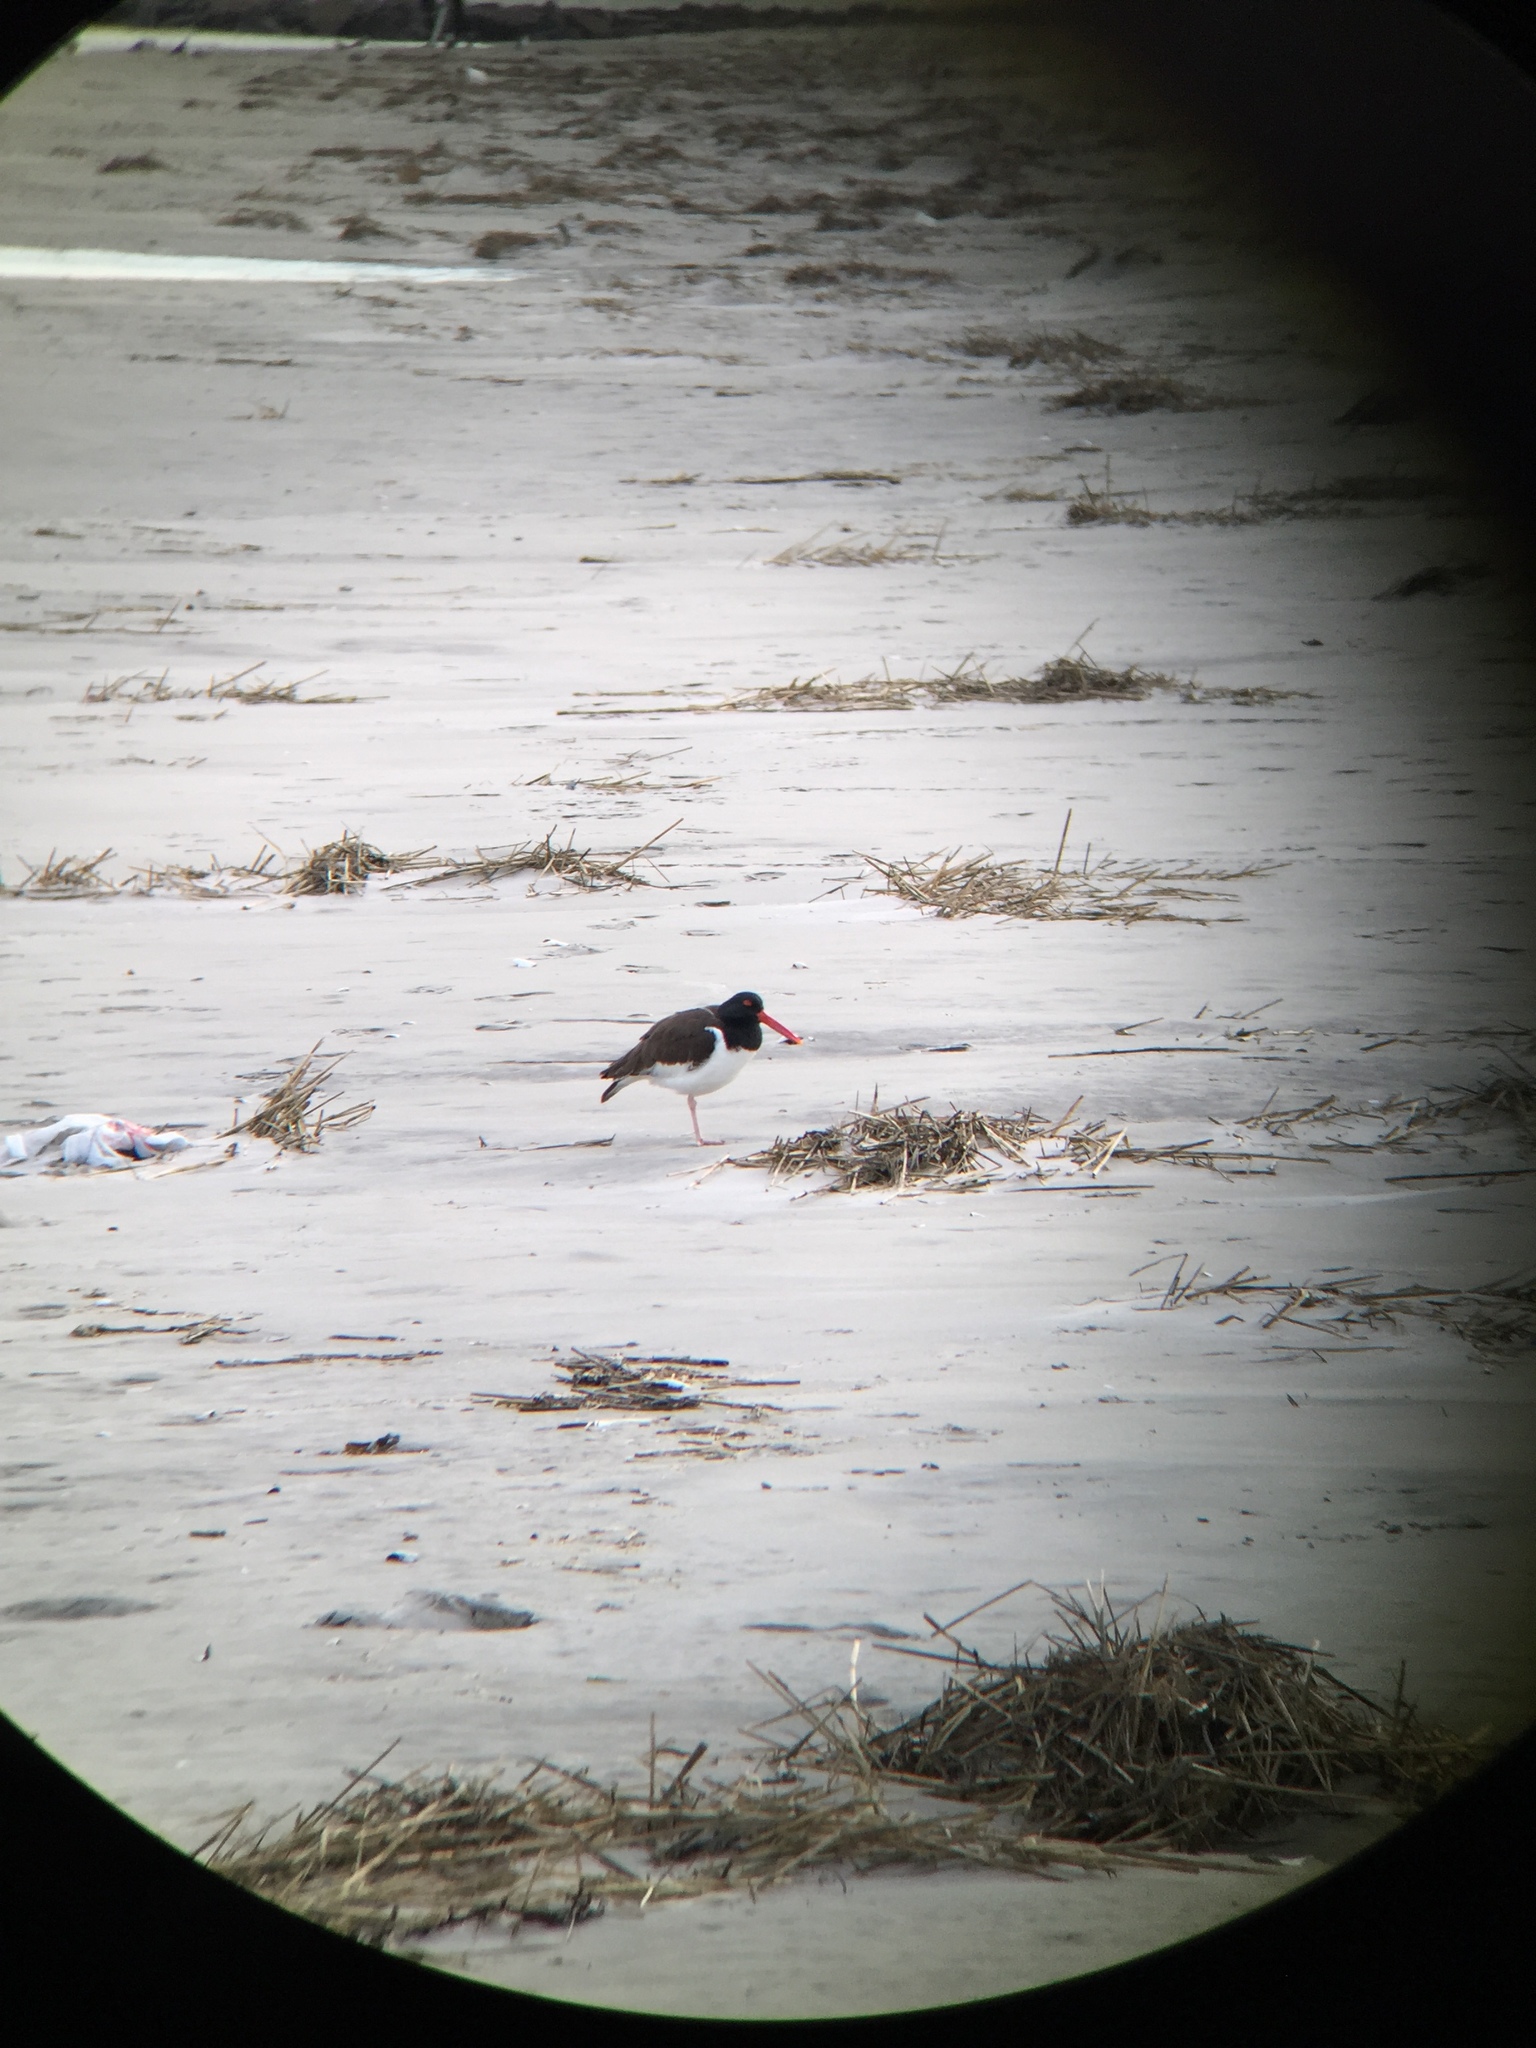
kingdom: Animalia
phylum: Chordata
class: Aves
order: Charadriiformes
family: Haematopodidae
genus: Haematopus
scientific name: Haematopus palliatus
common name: American oystercatcher
